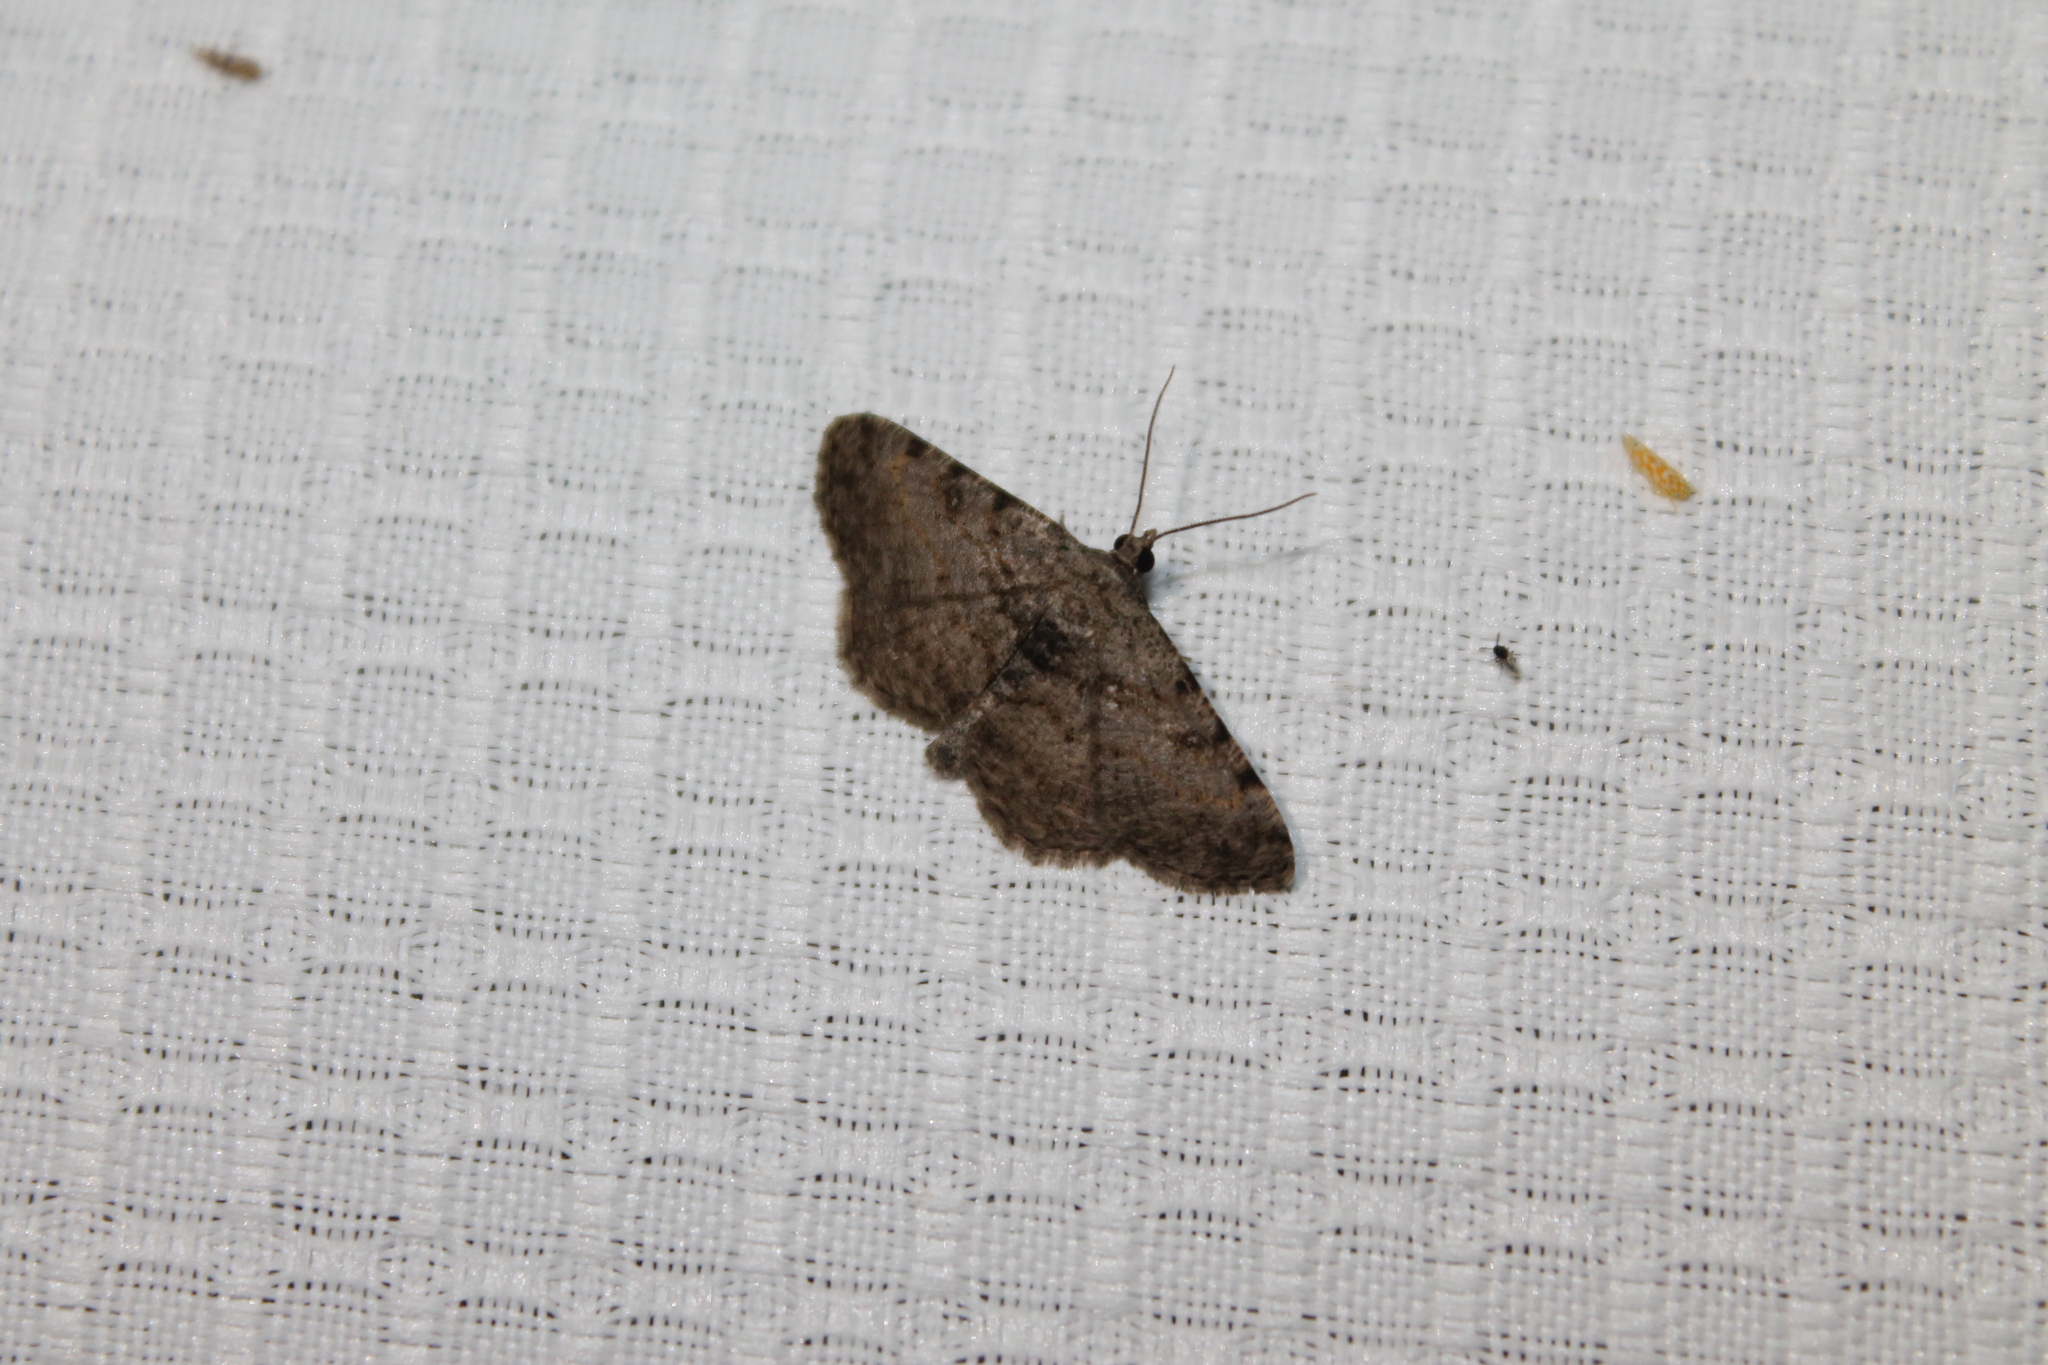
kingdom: Animalia
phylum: Arthropoda
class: Insecta
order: Lepidoptera
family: Geometridae
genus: Digrammia
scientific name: Digrammia gnophosaria
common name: Hollow-spotted angle
